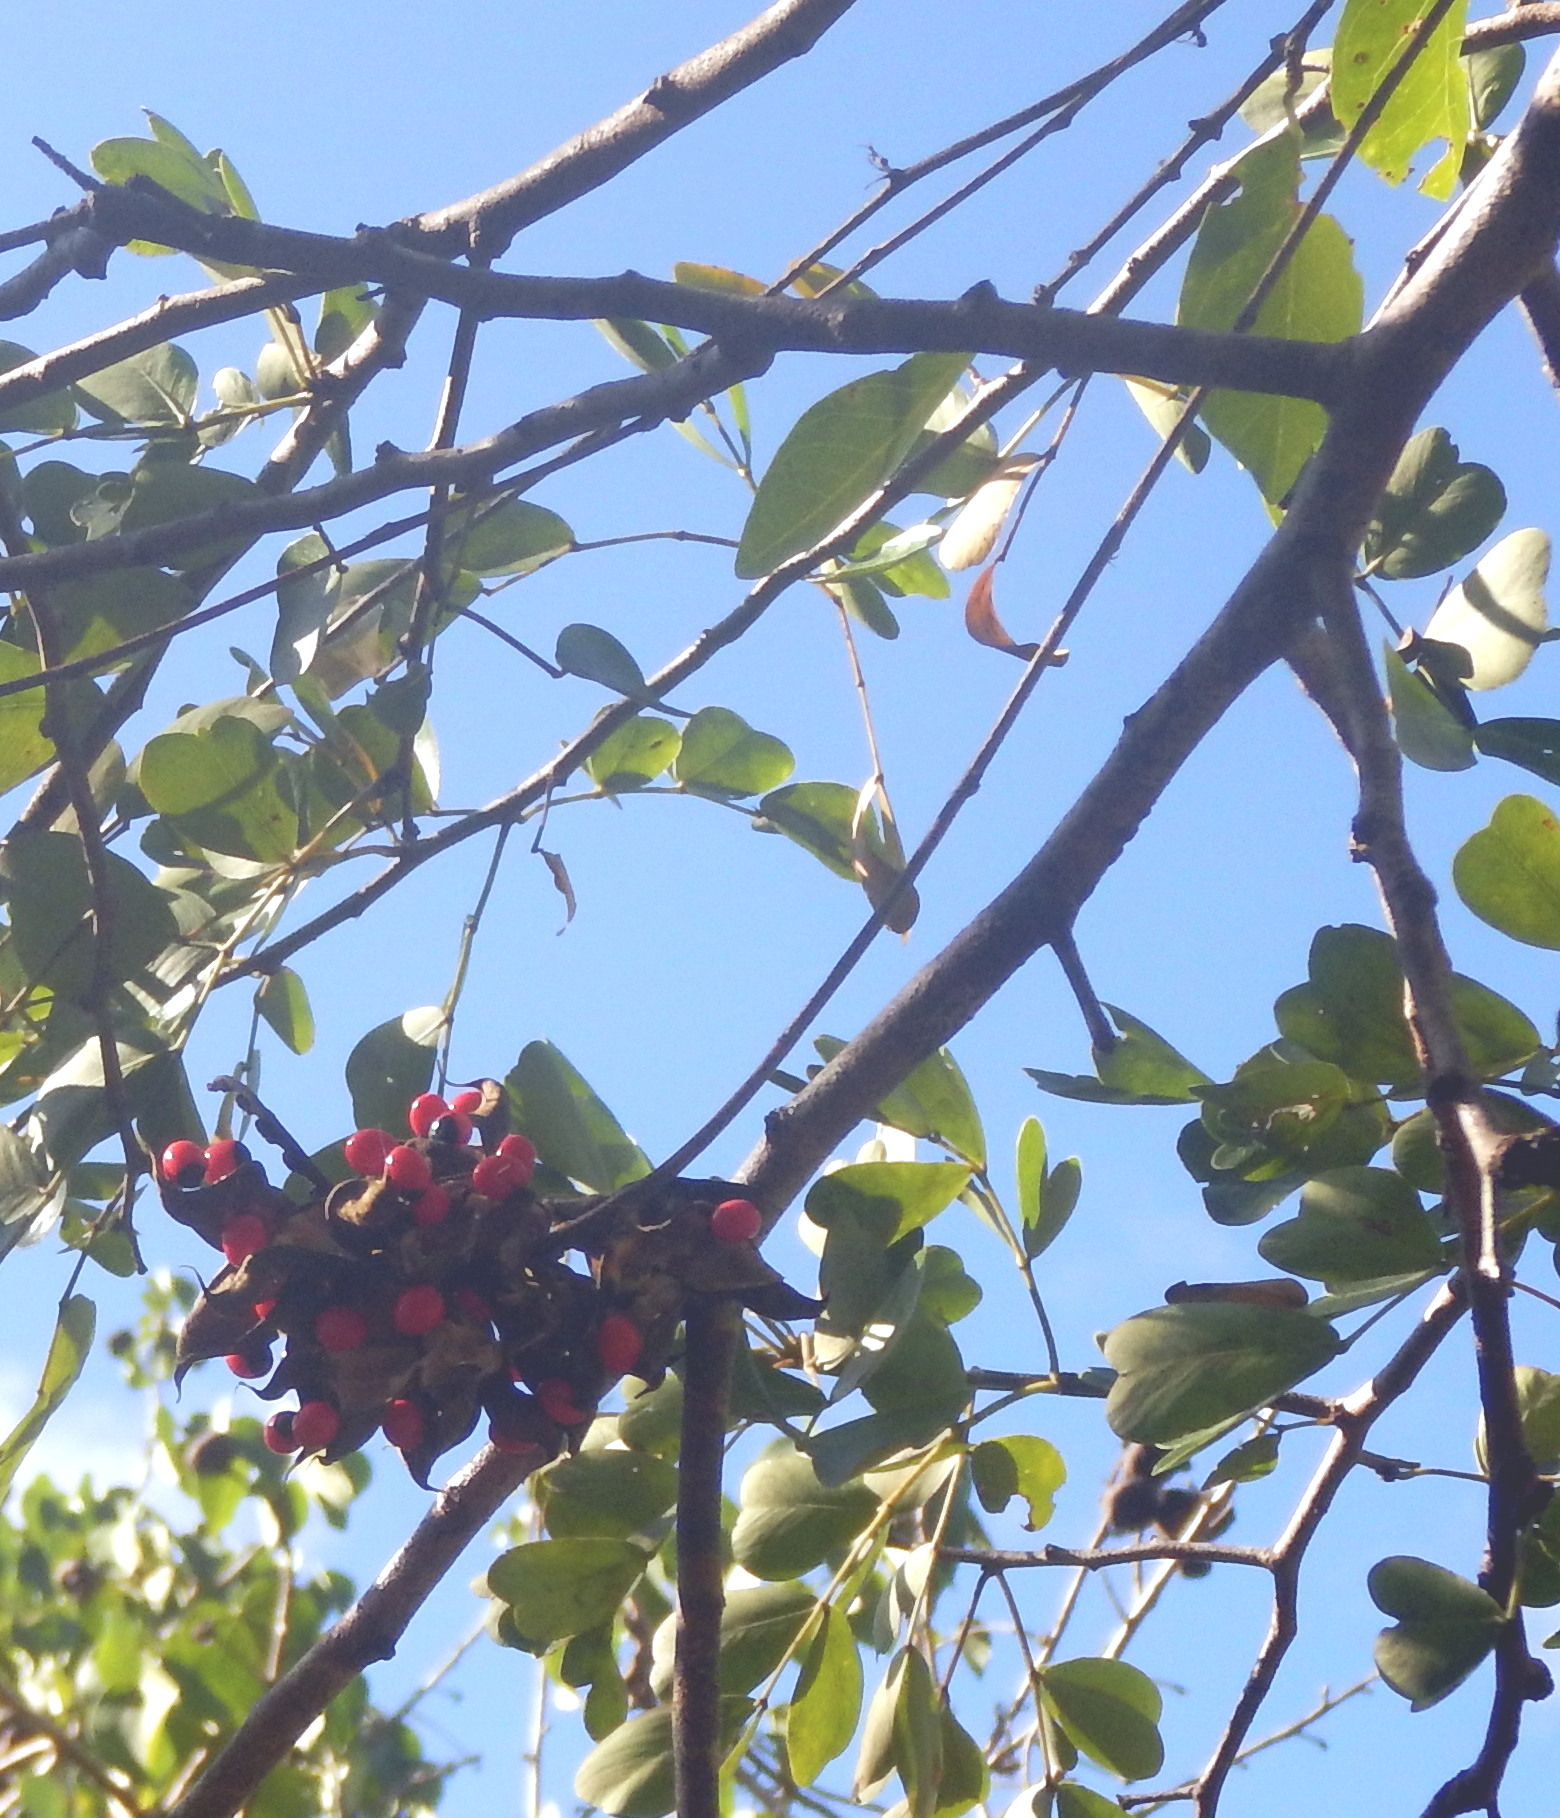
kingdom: Plantae
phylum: Tracheophyta
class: Magnoliopsida
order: Fabales
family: Fabaceae
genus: Abrus
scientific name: Abrus precatorius
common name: Rosarypea
